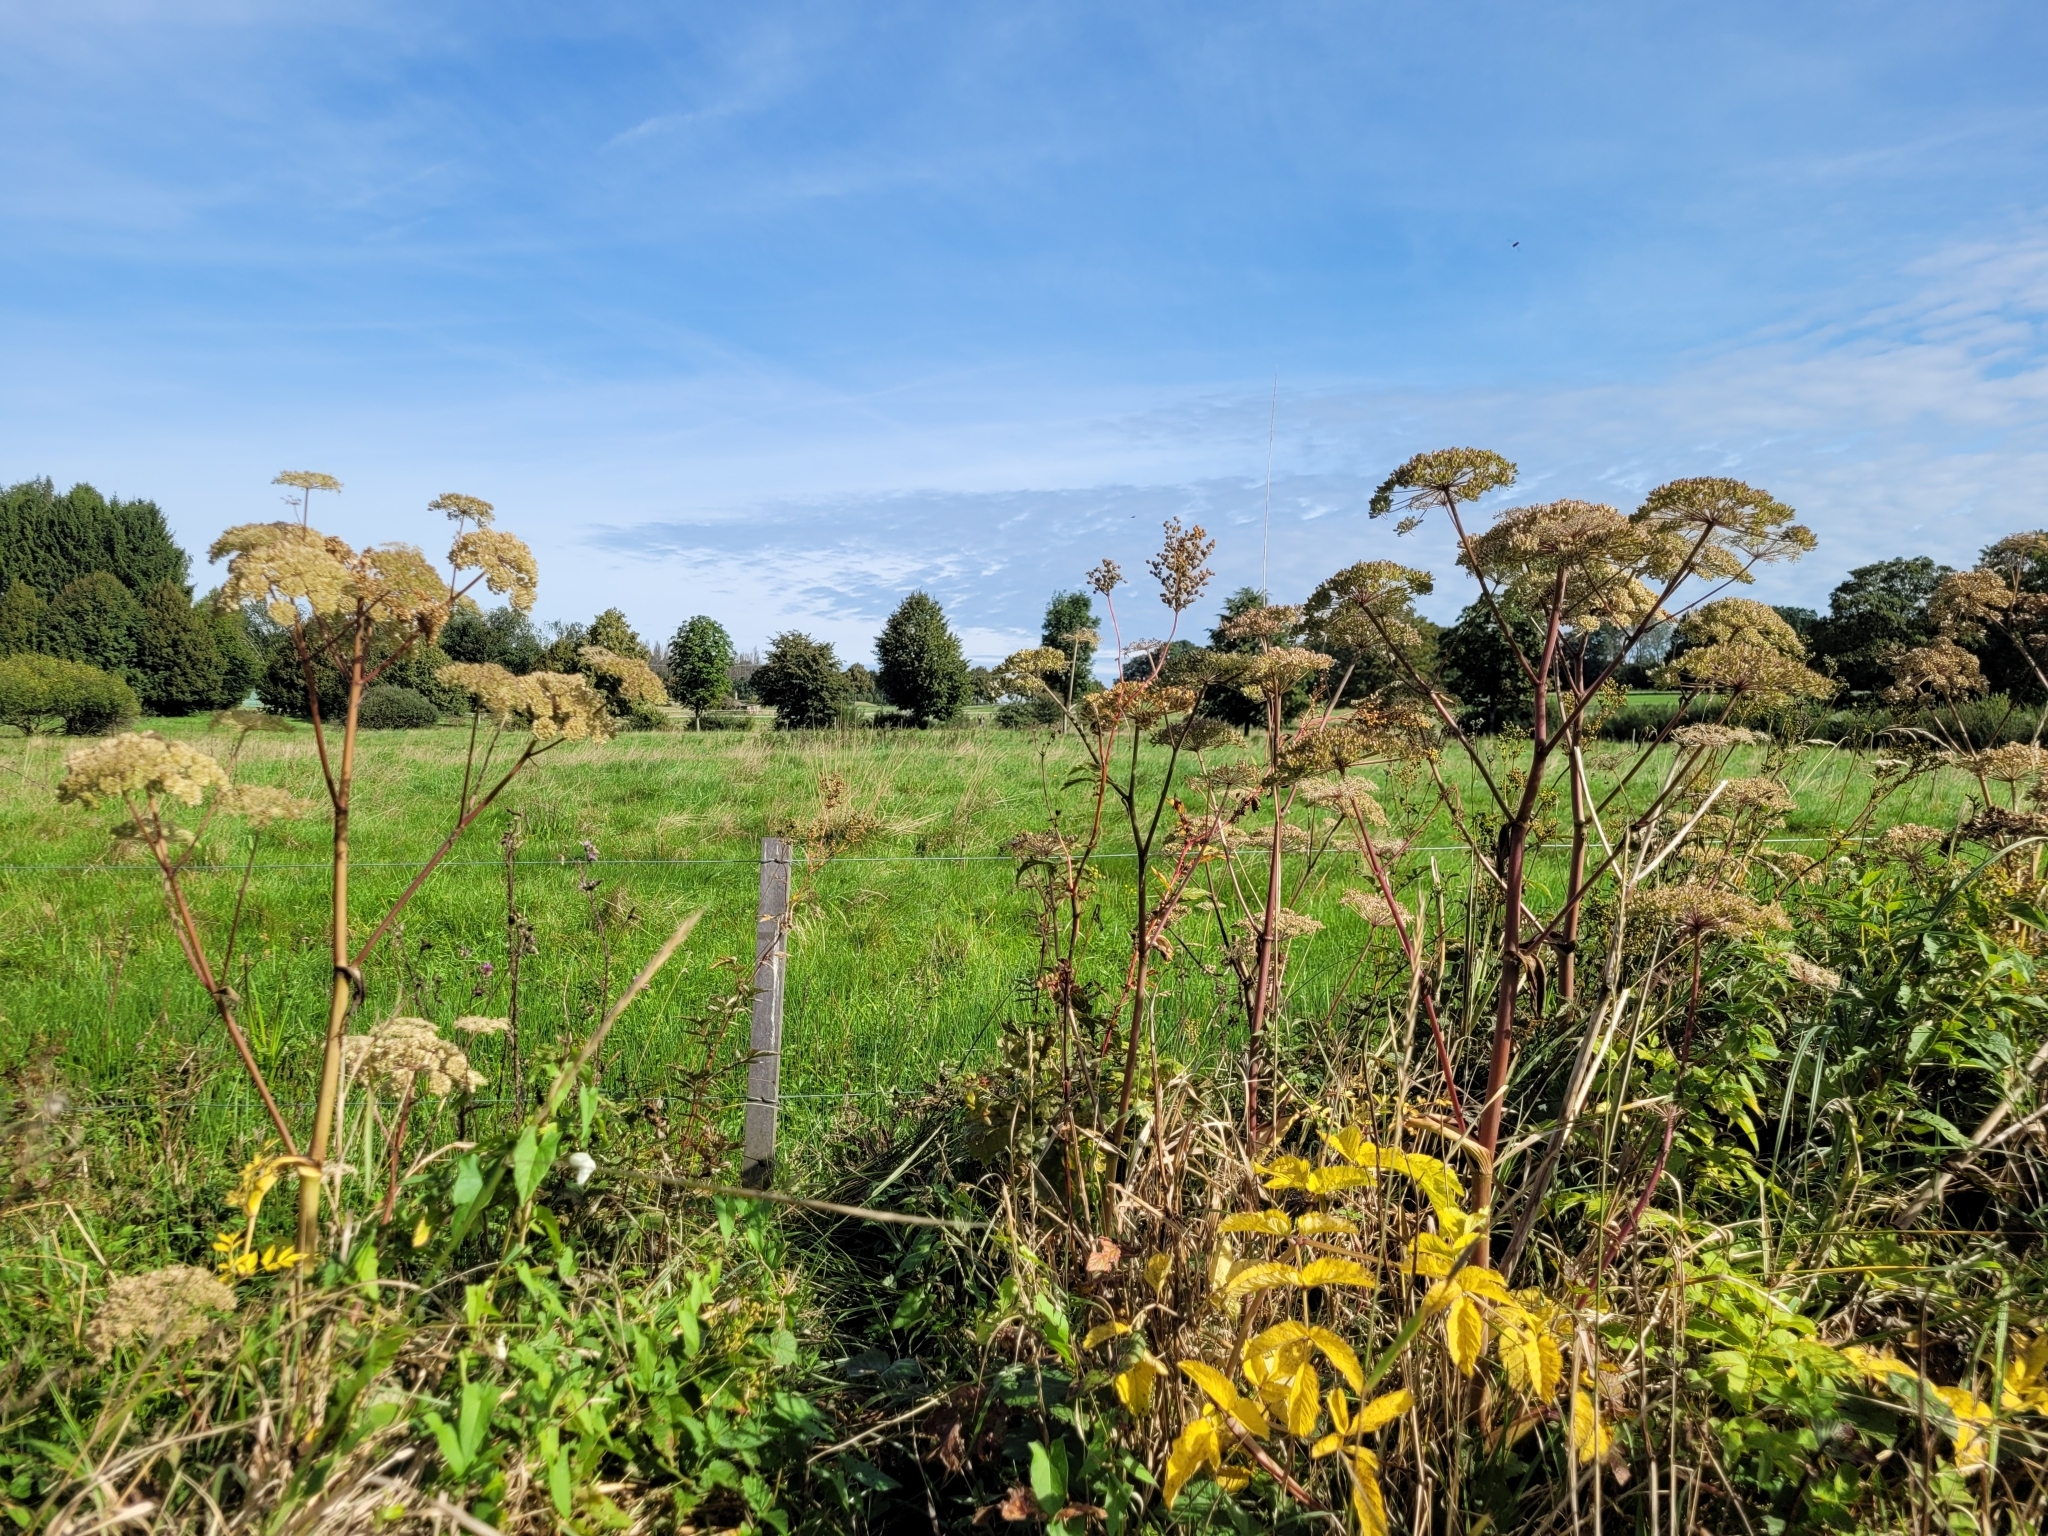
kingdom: Plantae
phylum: Tracheophyta
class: Magnoliopsida
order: Apiales
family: Apiaceae
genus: Angelica
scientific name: Angelica sylvestris
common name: Wild angelica
